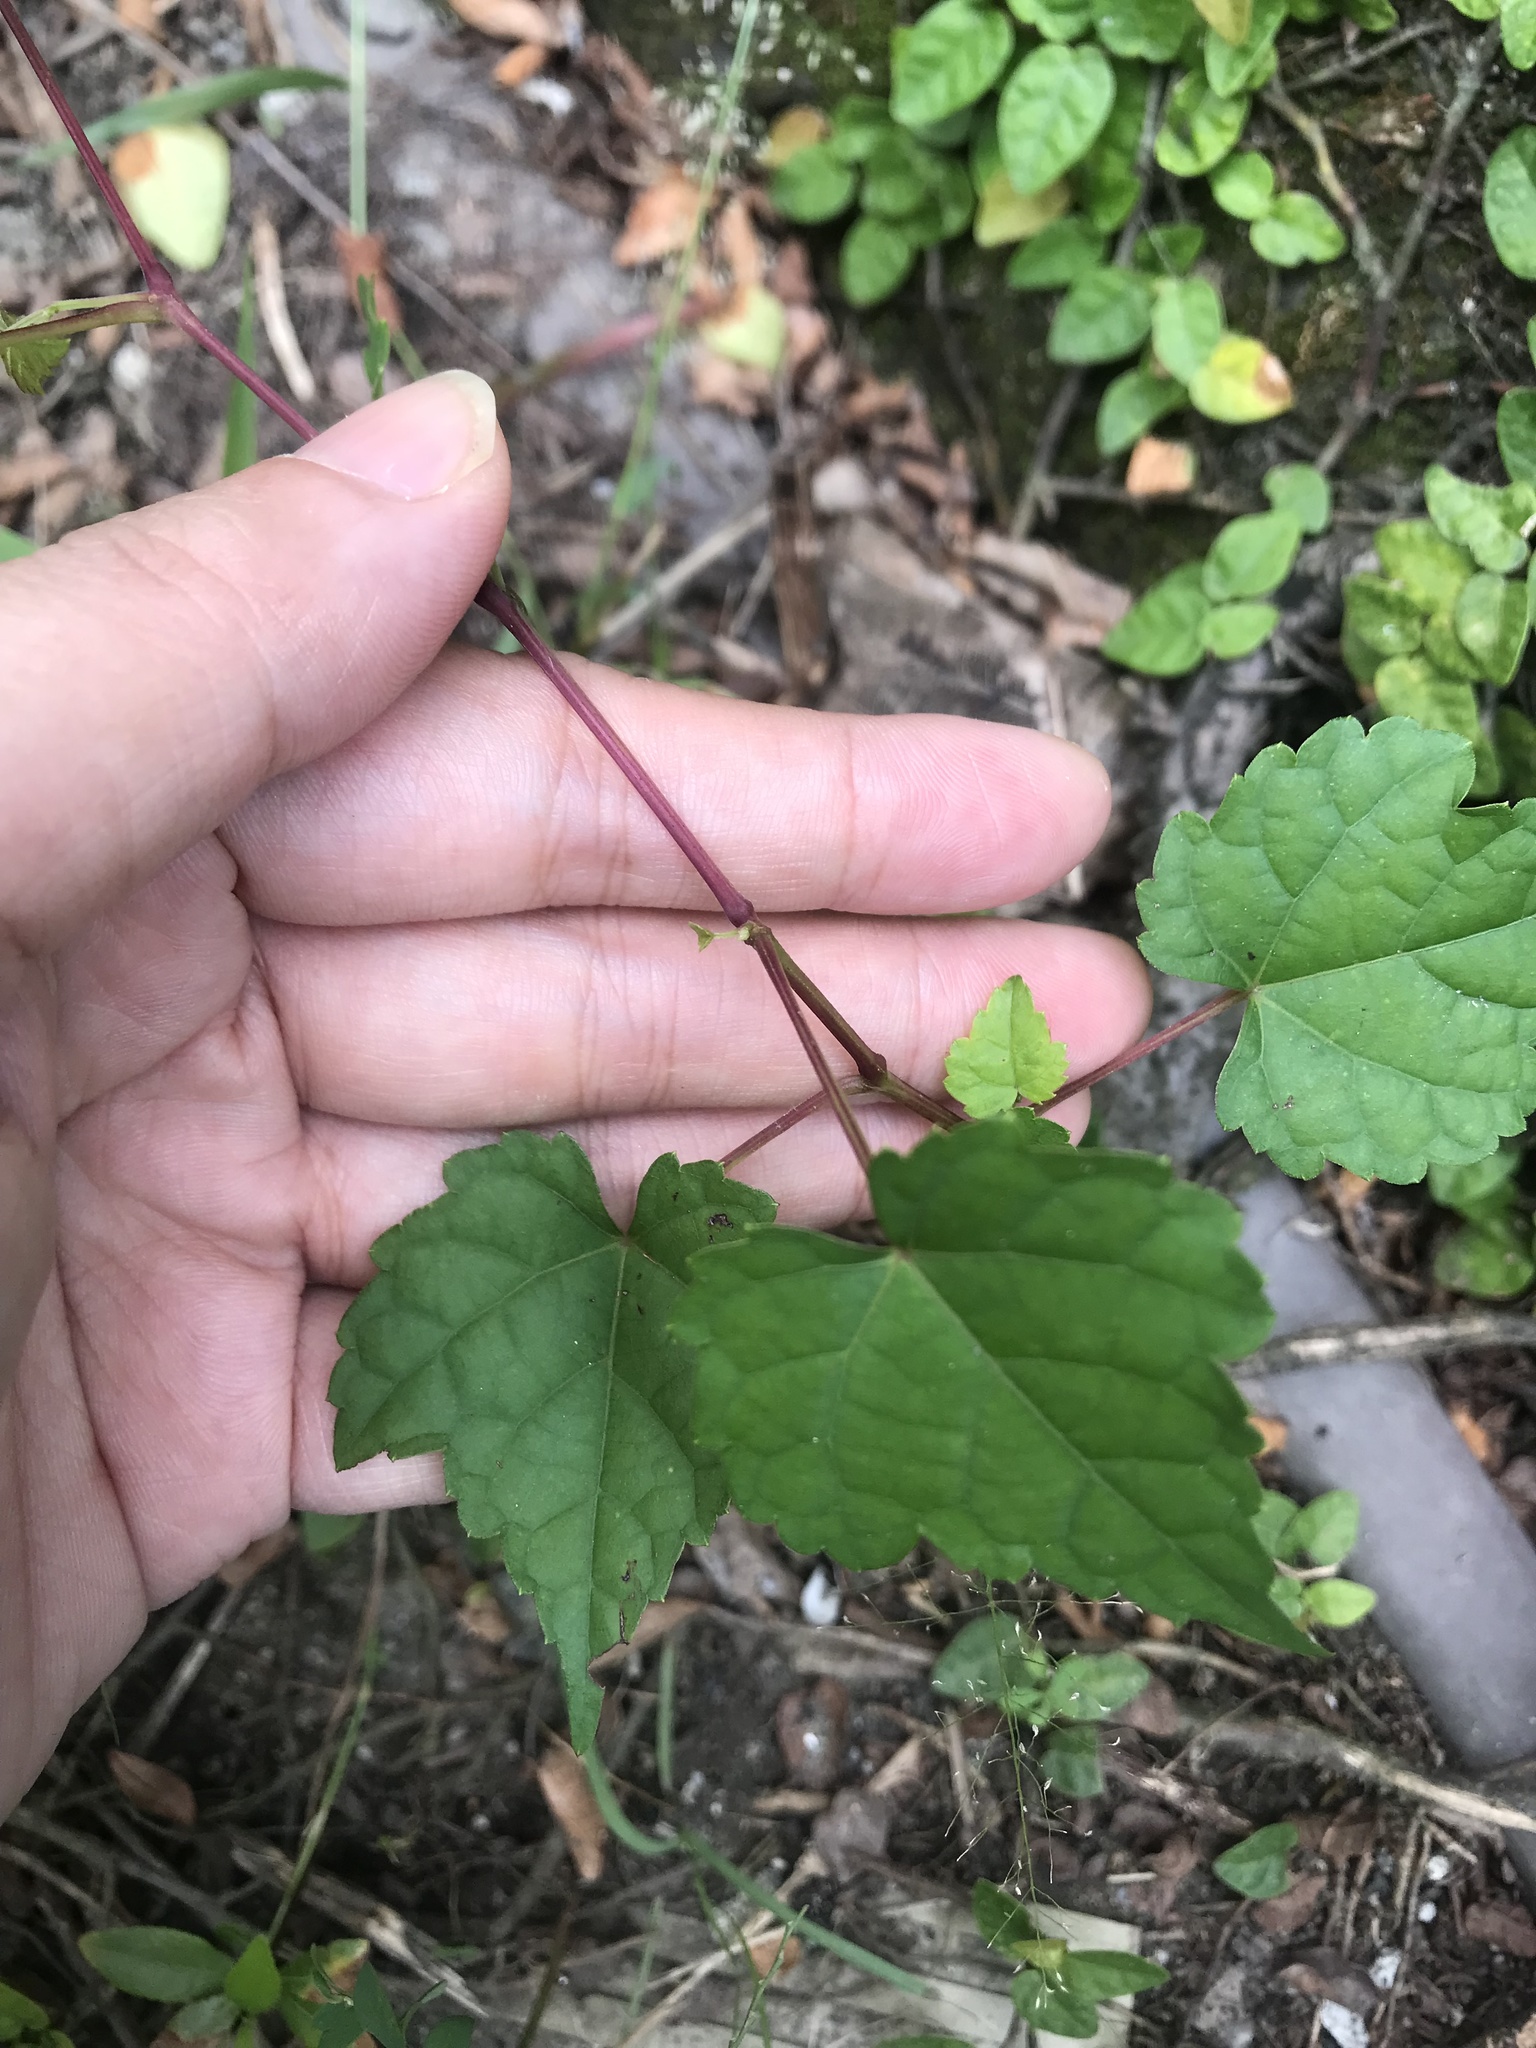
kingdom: Plantae
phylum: Tracheophyta
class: Magnoliopsida
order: Vitales
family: Vitaceae
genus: Ampelopsis
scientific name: Ampelopsis glandulosa
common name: Amur peppervine
